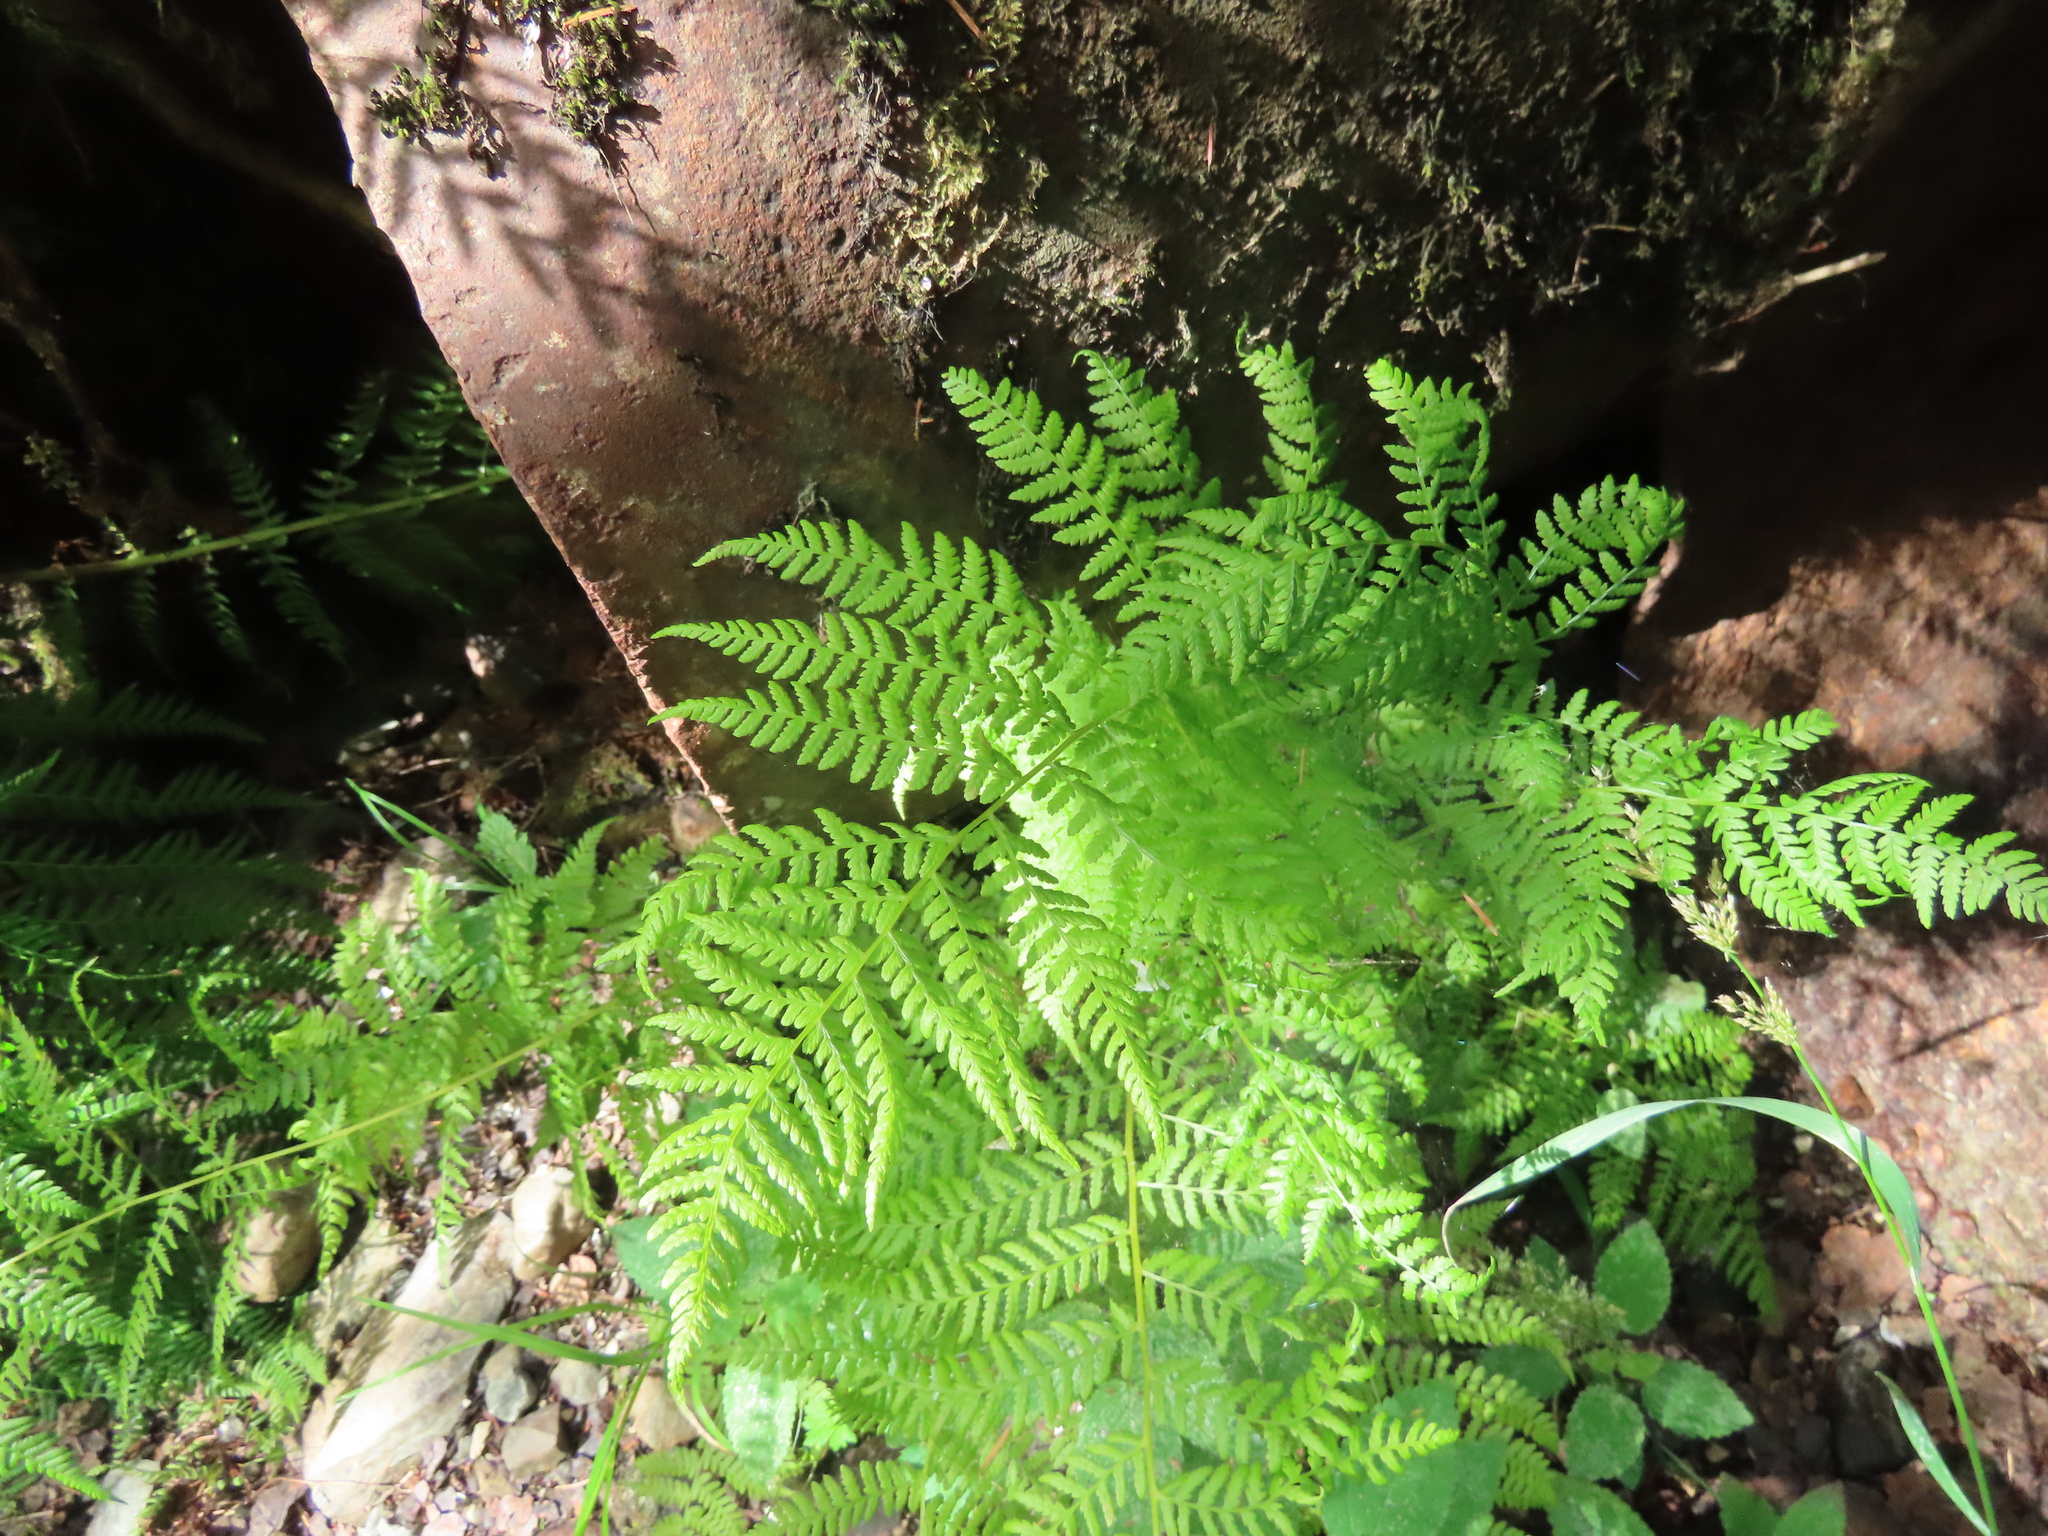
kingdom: Plantae
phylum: Tracheophyta
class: Polypodiopsida
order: Polypodiales
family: Athyriaceae
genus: Athyrium
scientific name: Athyrium filix-femina
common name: Lady fern
